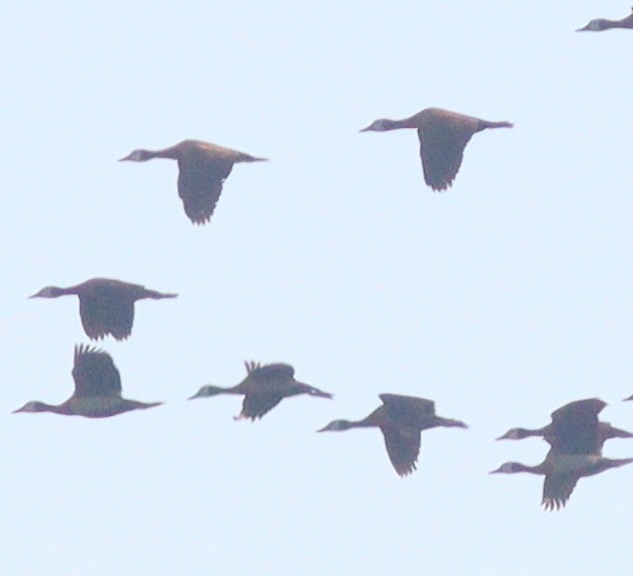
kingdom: Animalia
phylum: Chordata
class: Aves
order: Anseriformes
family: Anatidae
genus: Dendrocygna
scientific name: Dendrocygna viduata
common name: White-faced whistling duck
